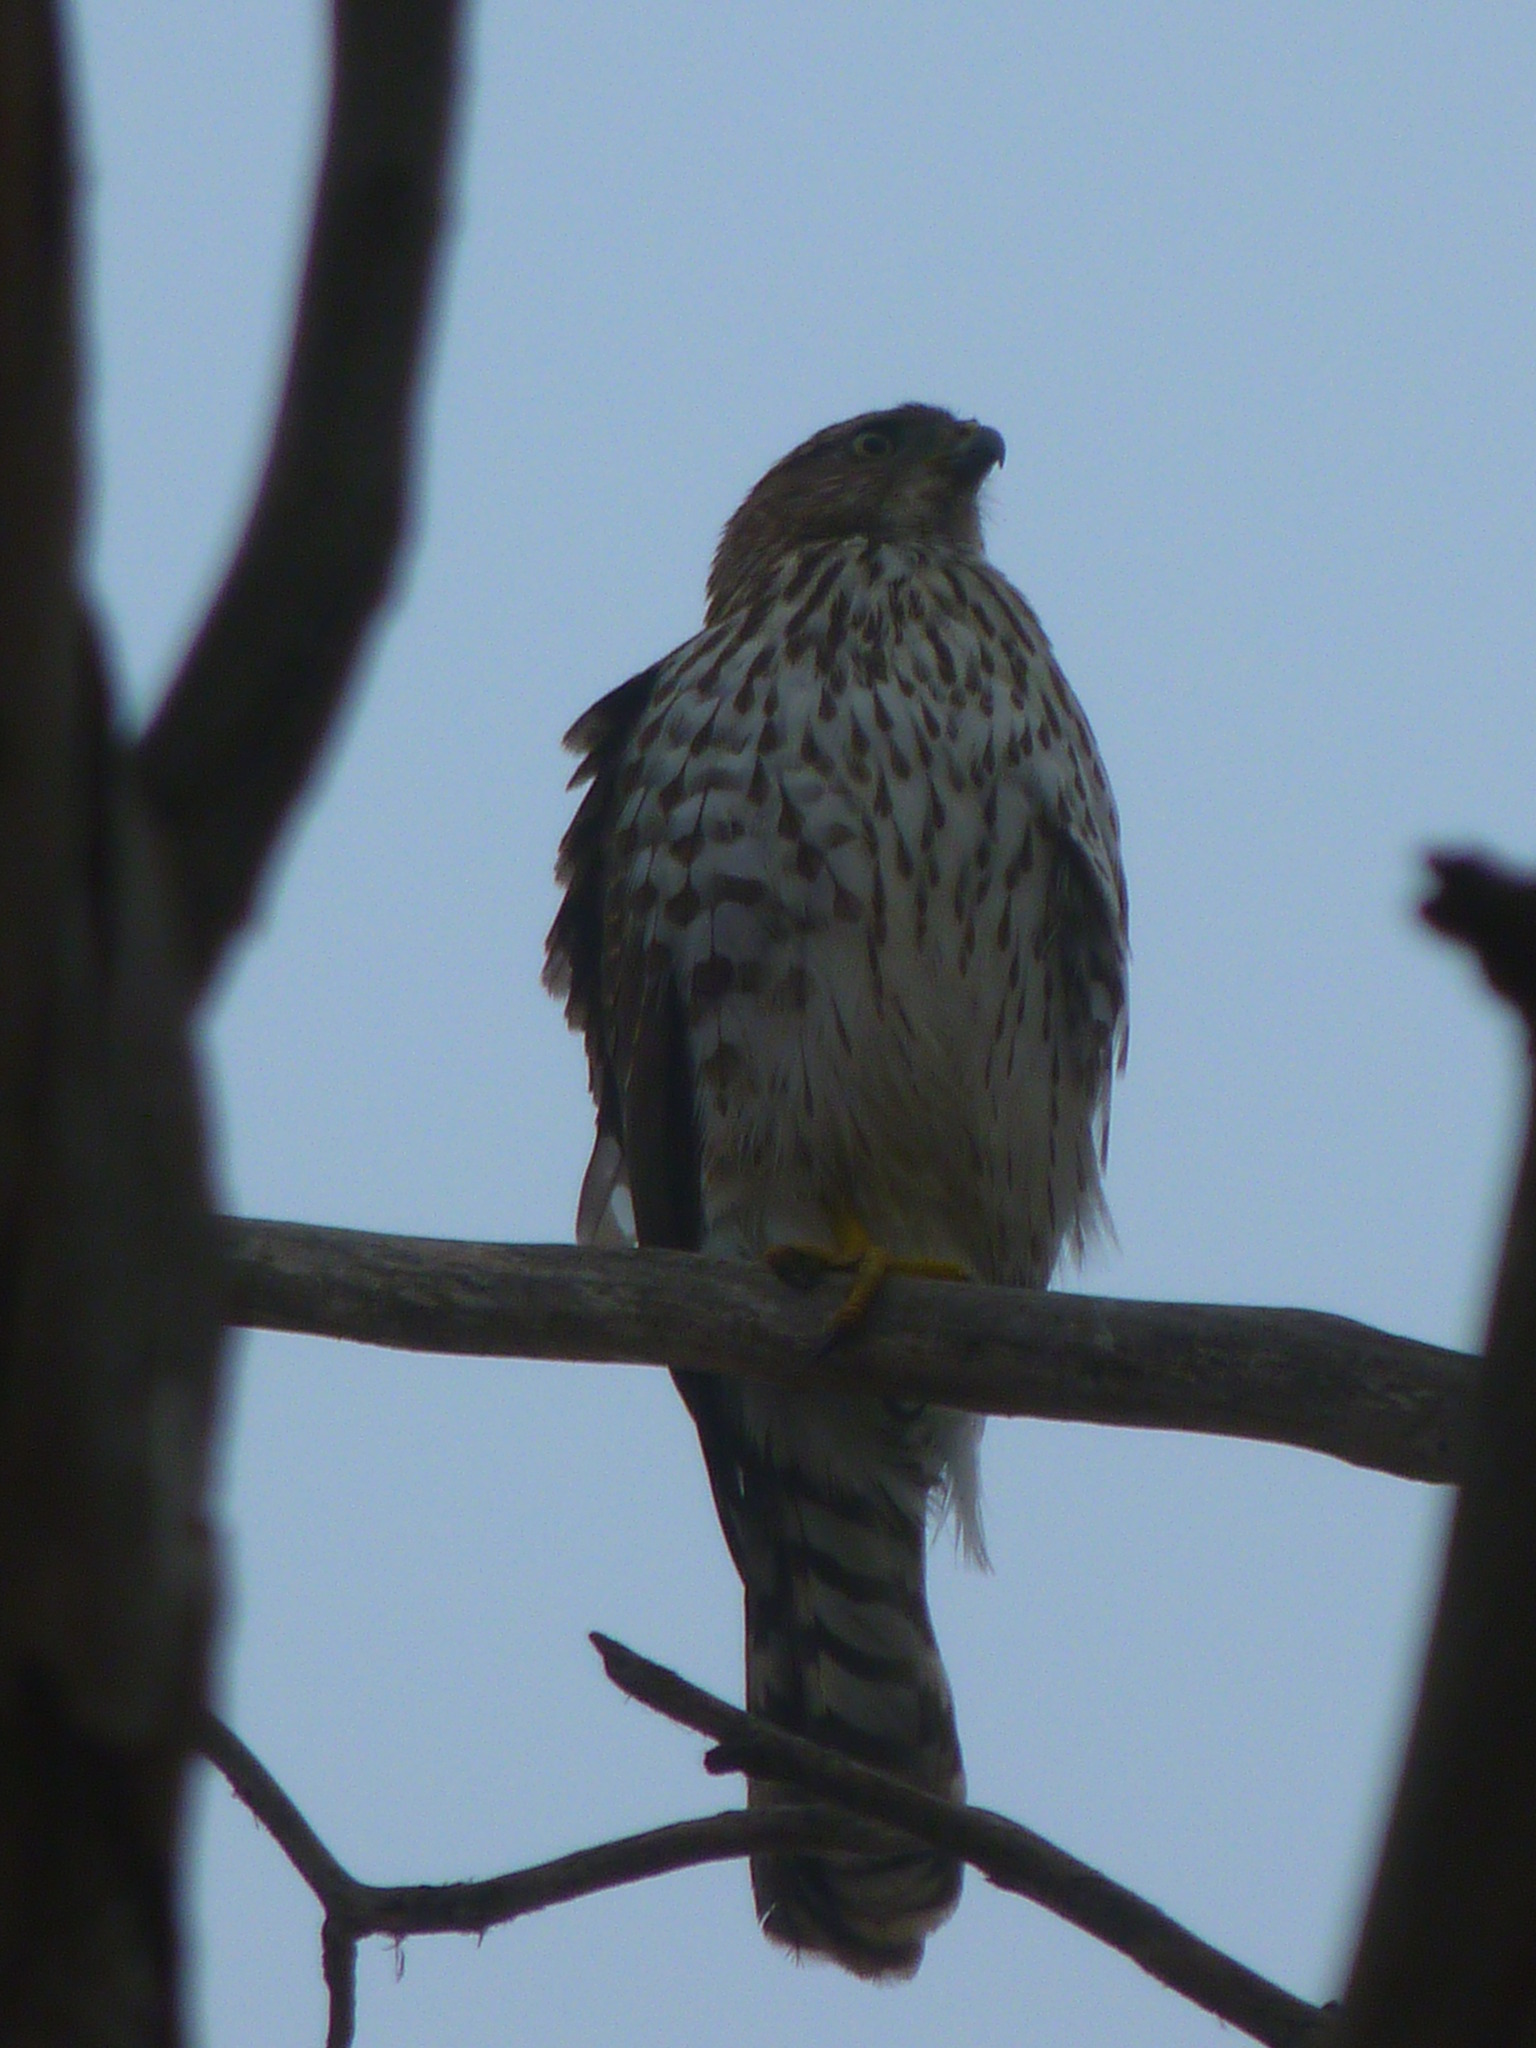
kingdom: Animalia
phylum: Chordata
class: Aves
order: Accipitriformes
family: Accipitridae
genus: Accipiter
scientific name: Accipiter cooperii
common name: Cooper's hawk
